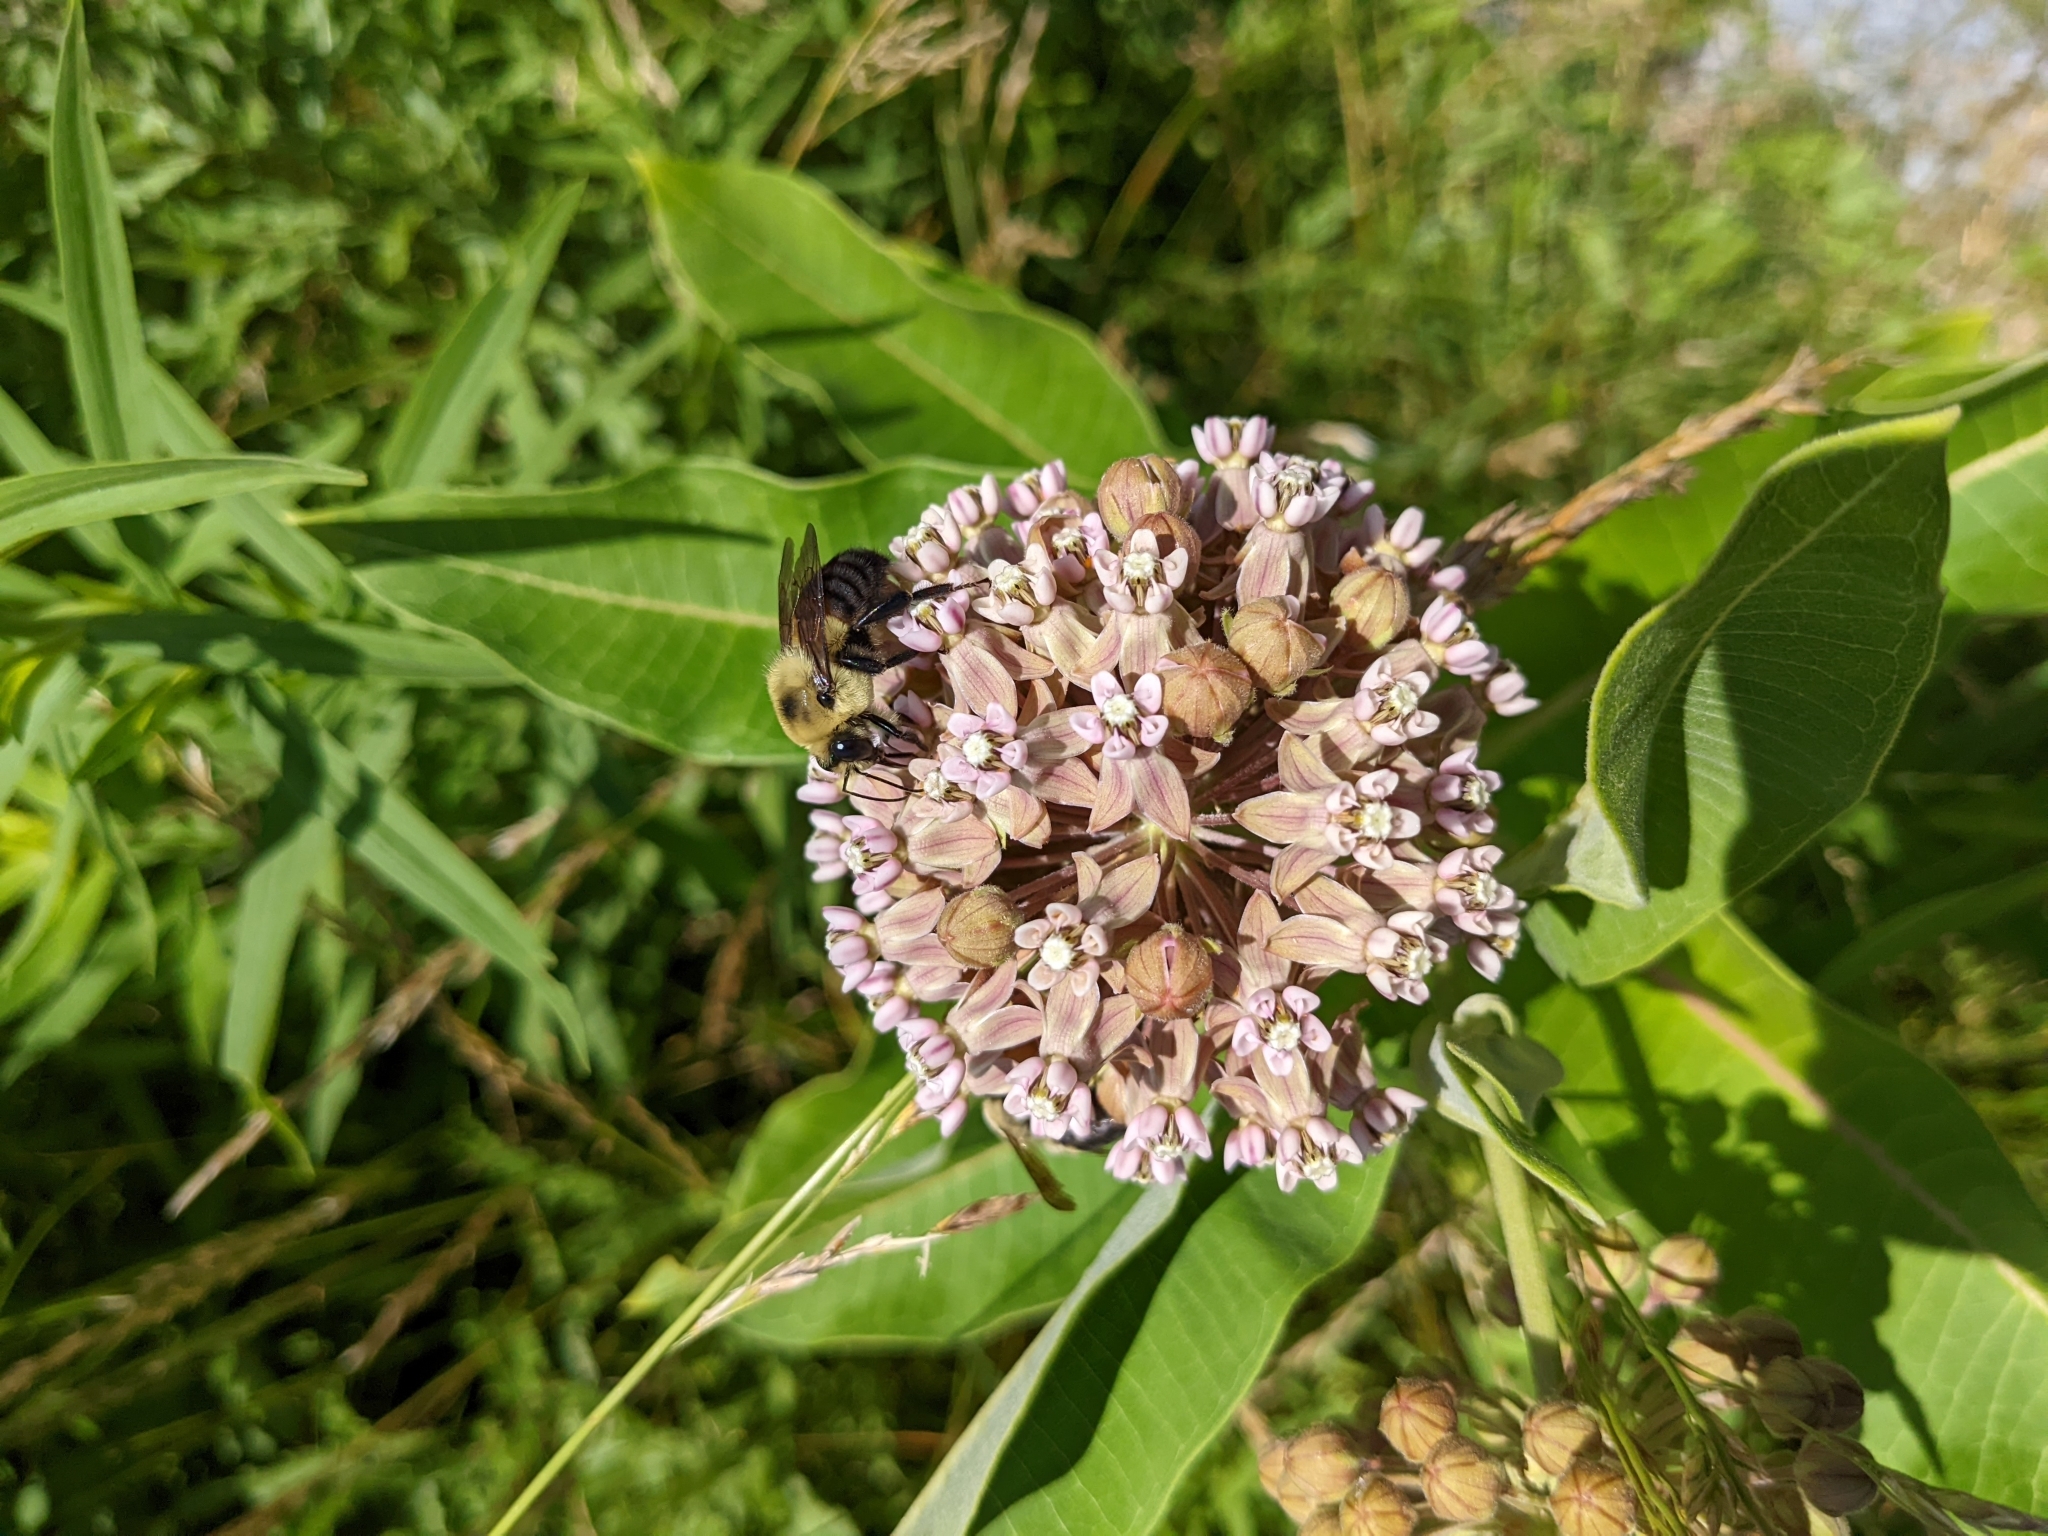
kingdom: Animalia
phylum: Arthropoda
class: Insecta
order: Hymenoptera
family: Apidae
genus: Bombus
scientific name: Bombus griseocollis
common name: Brown-belted bumble bee
